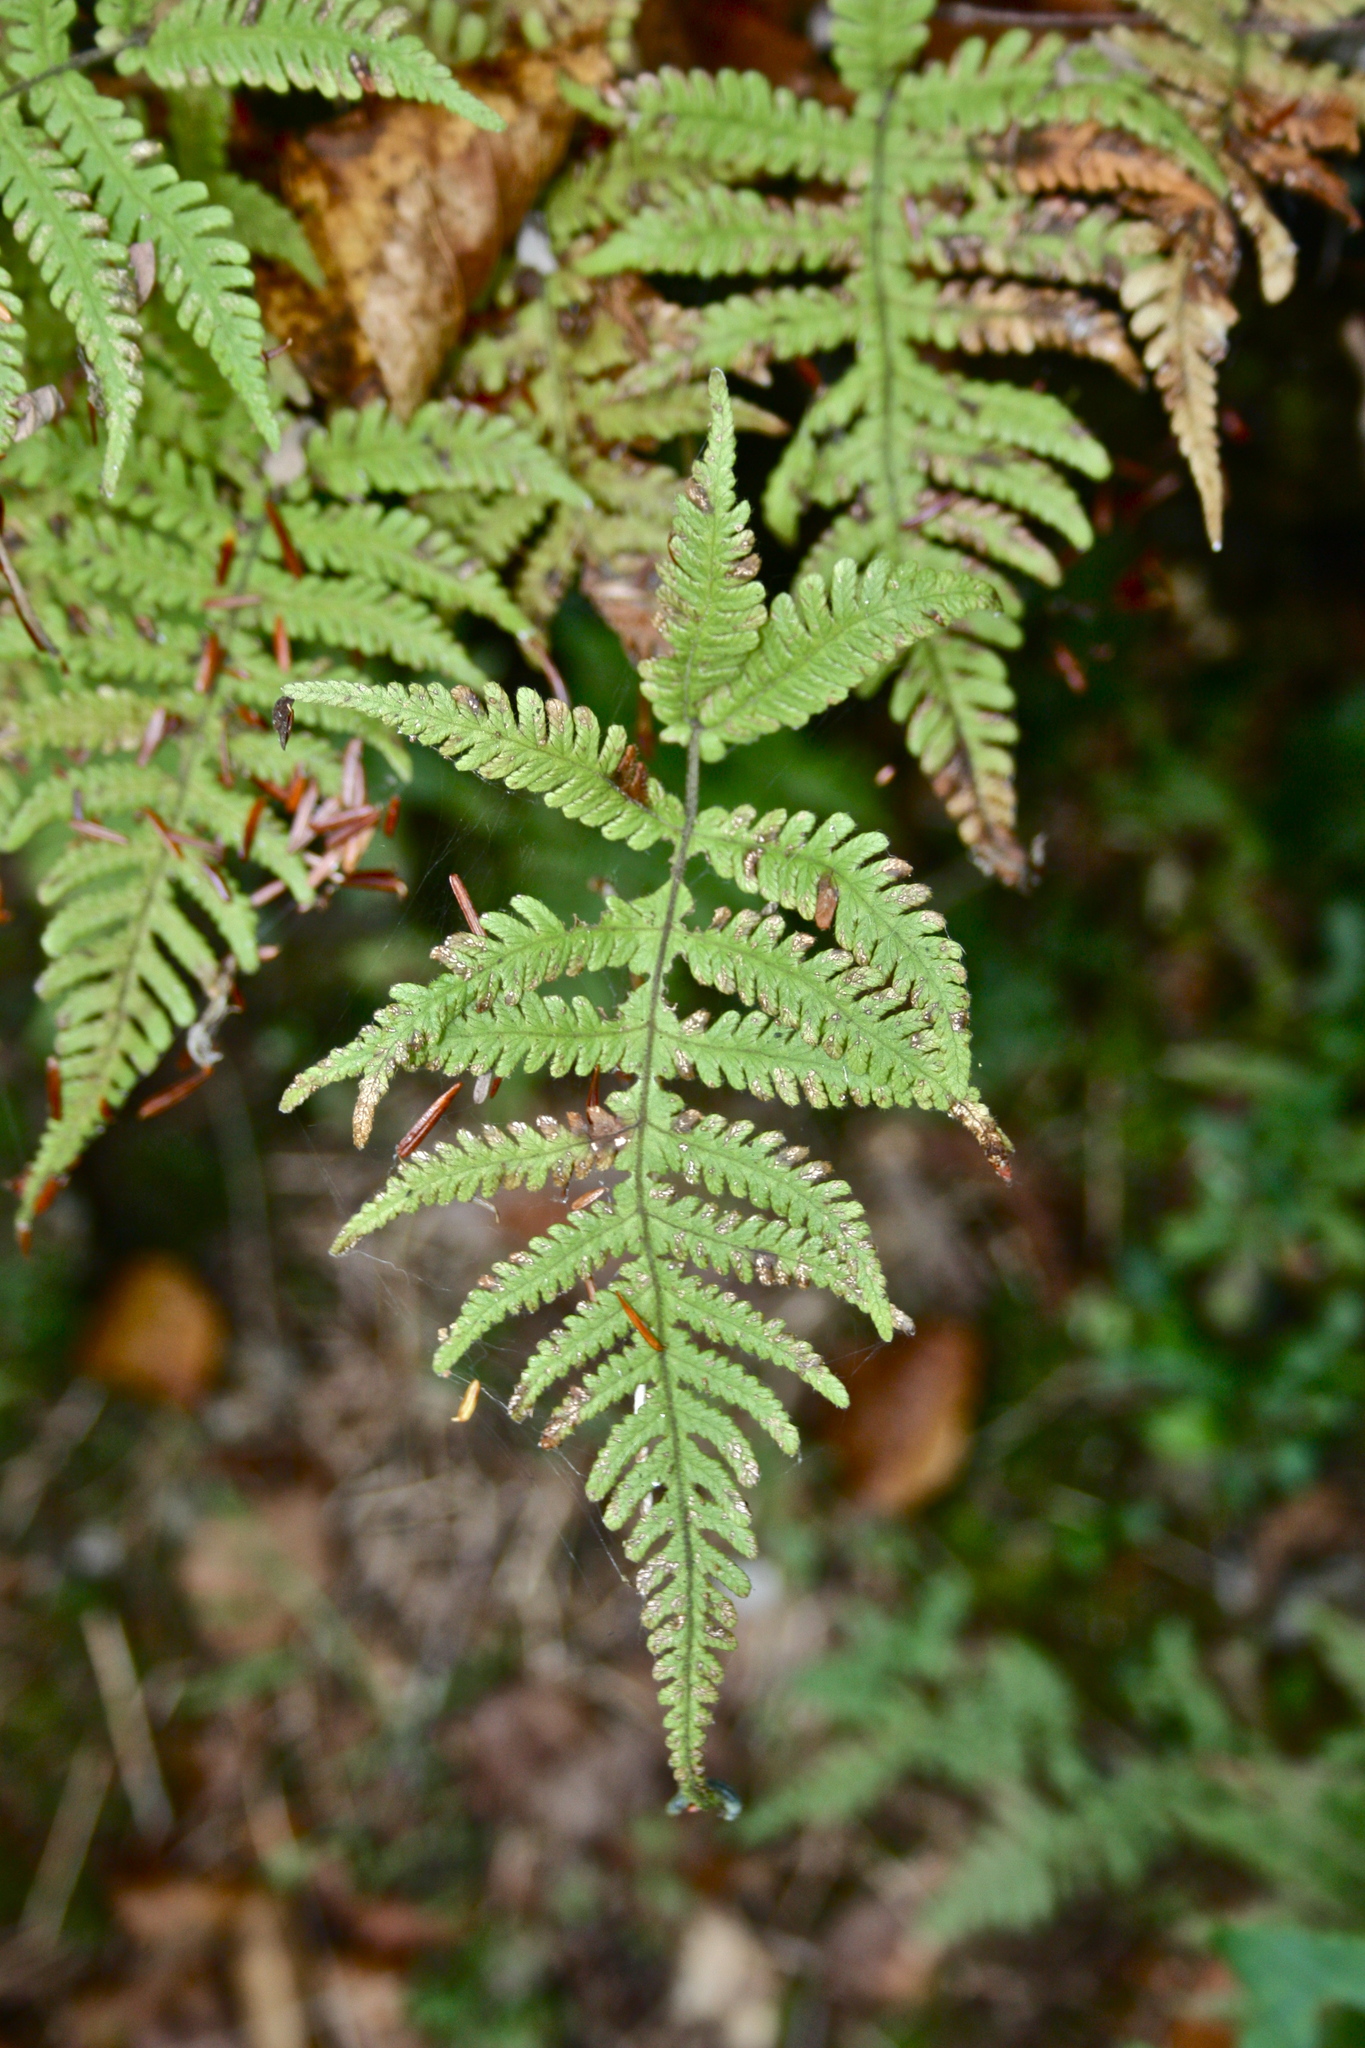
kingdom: Plantae
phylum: Tracheophyta
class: Polypodiopsida
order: Polypodiales
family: Thelypteridaceae
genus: Phegopteris
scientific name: Phegopteris connectilis
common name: Beech fern
